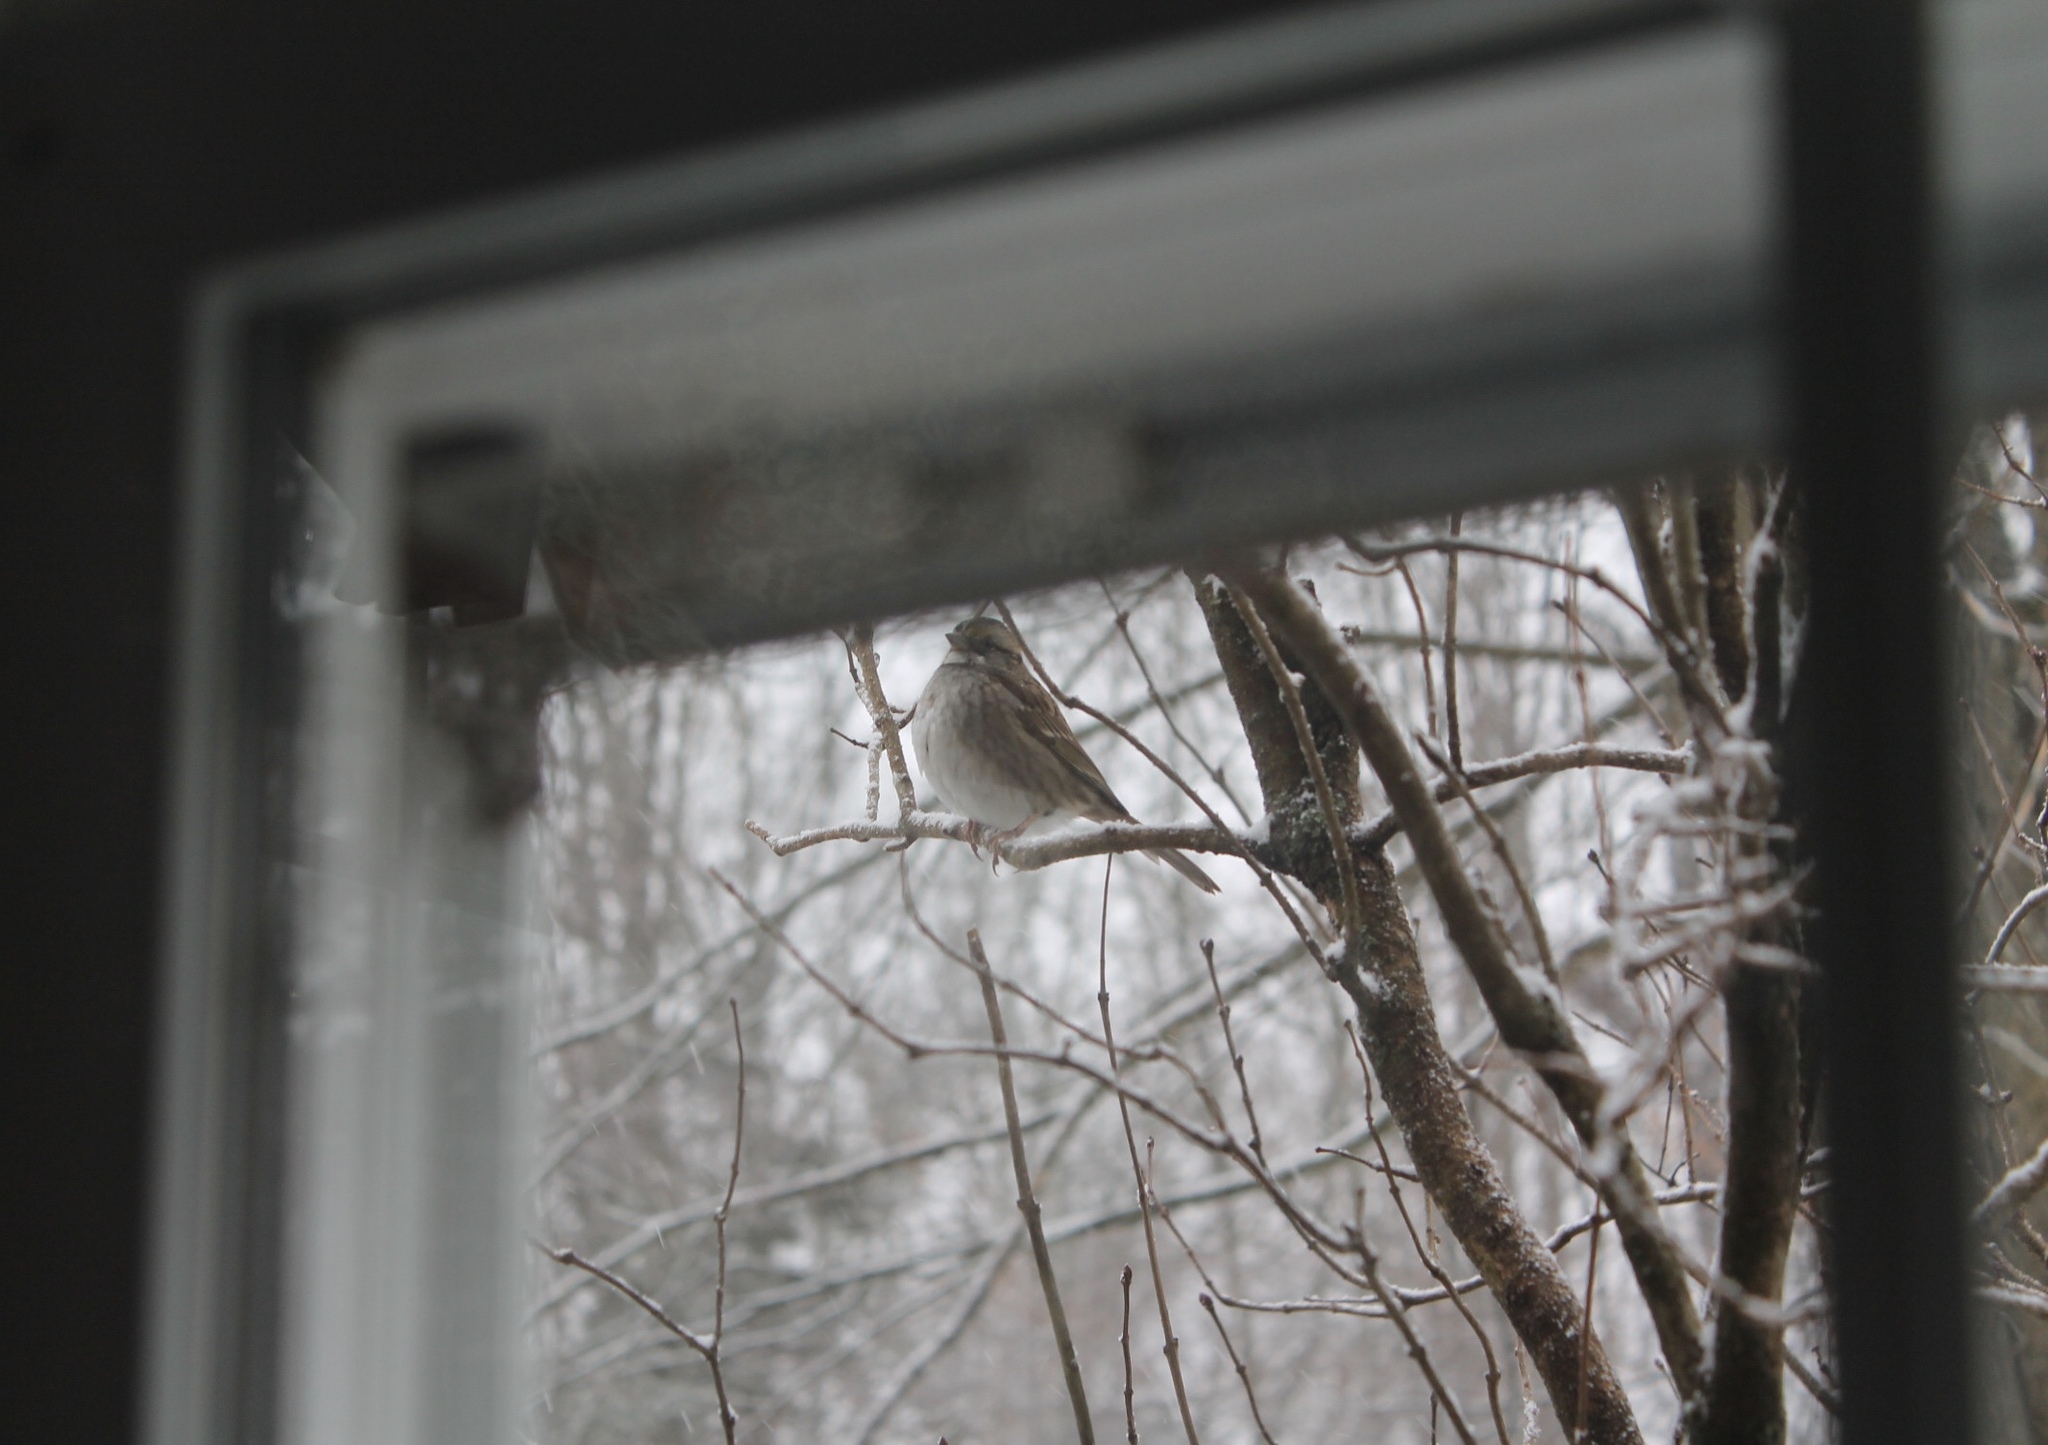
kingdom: Animalia
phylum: Chordata
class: Aves
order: Passeriformes
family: Passerellidae
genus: Zonotrichia
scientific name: Zonotrichia albicollis
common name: White-throated sparrow
